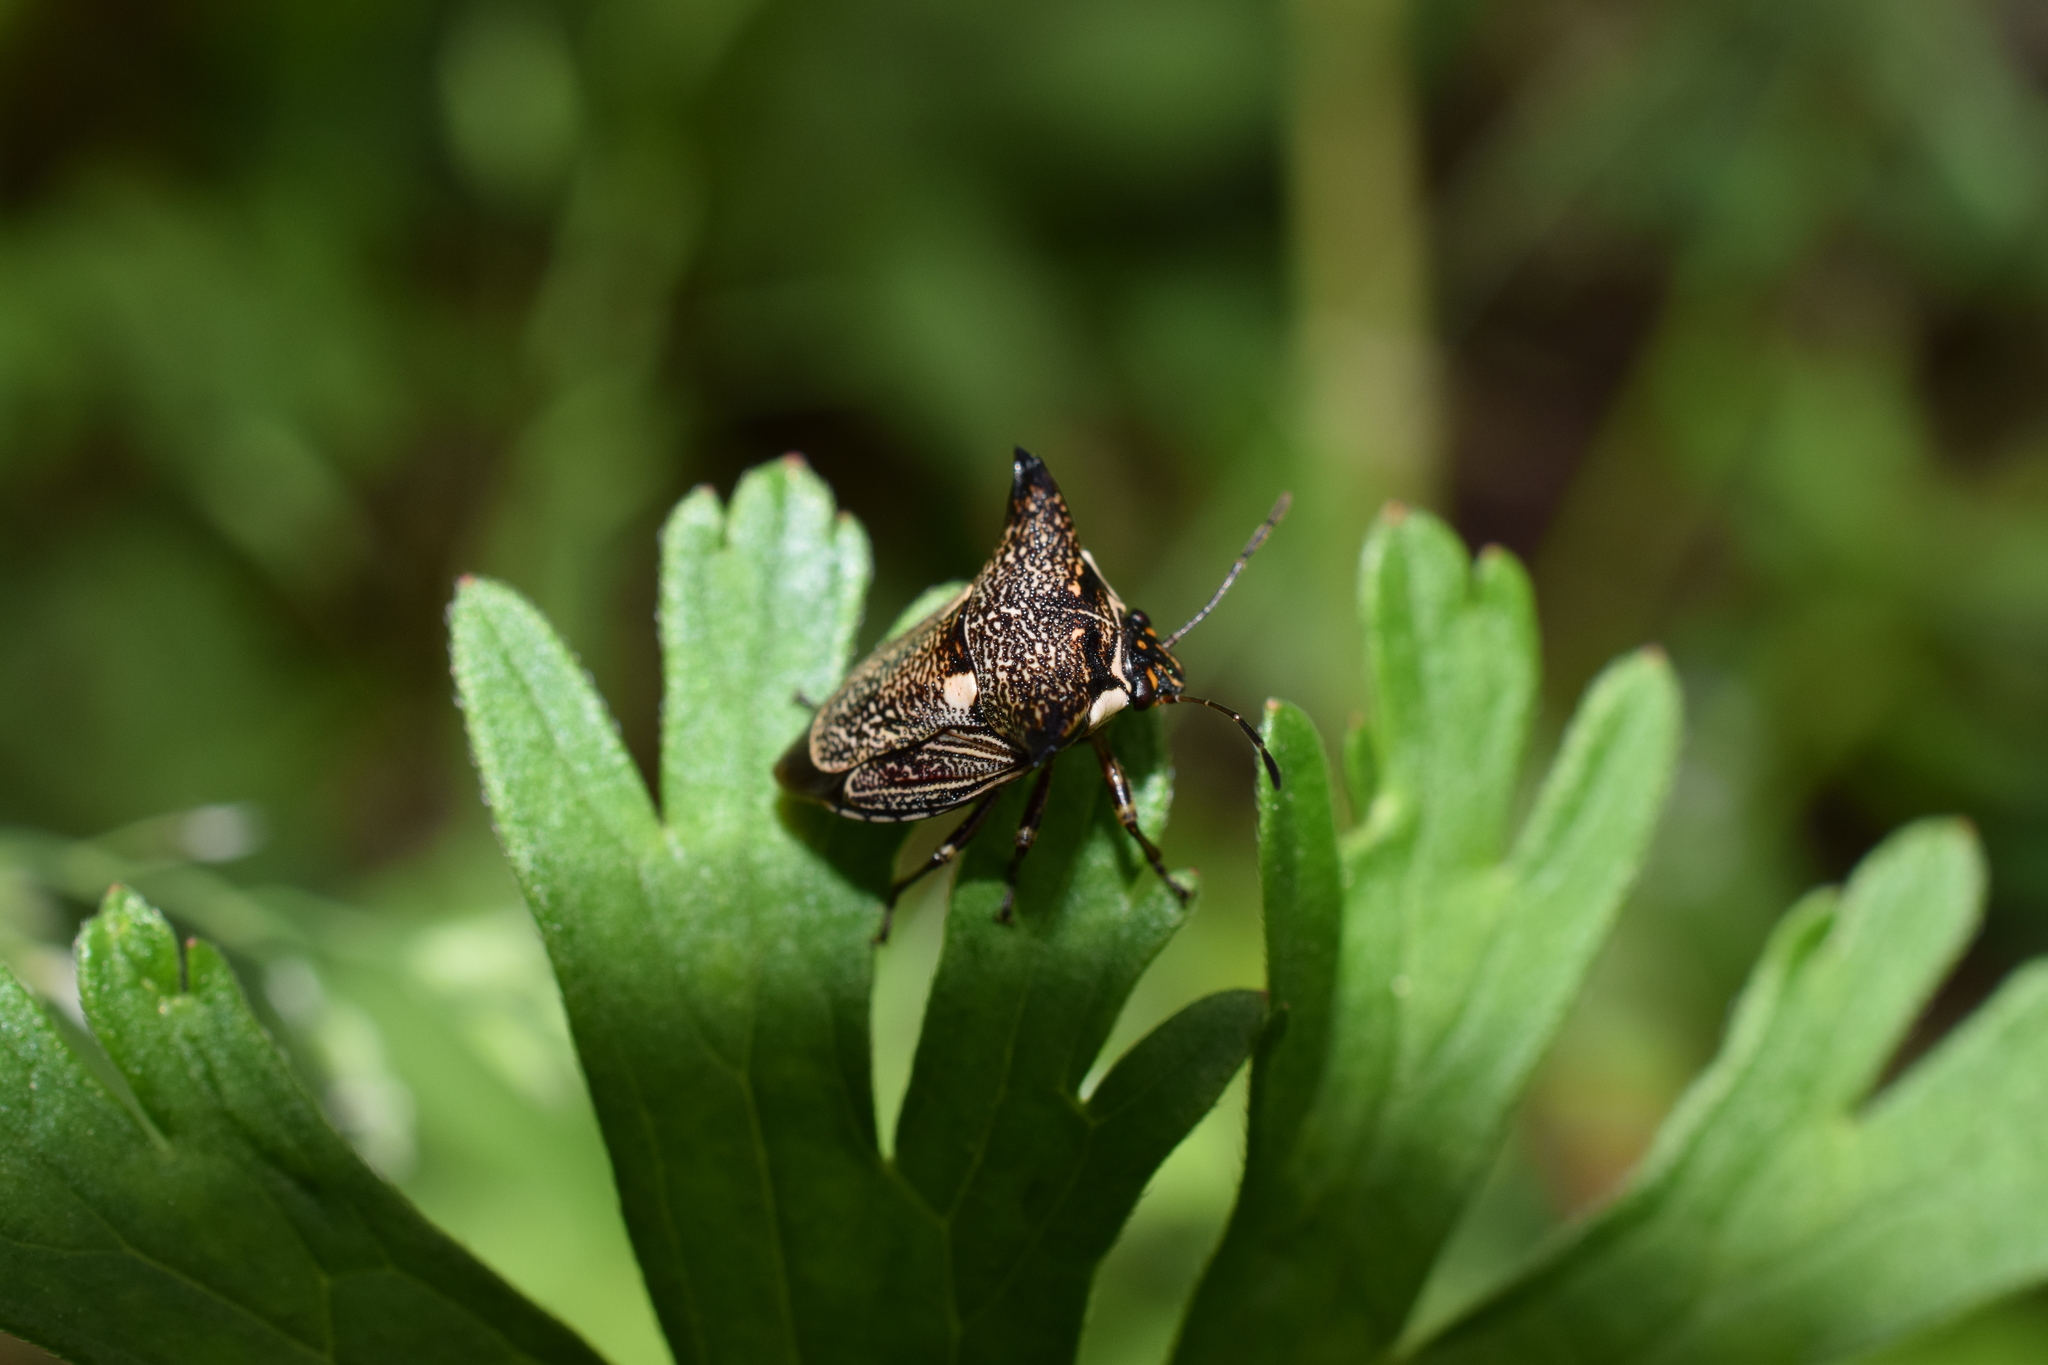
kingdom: Animalia
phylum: Arthropoda
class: Insecta
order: Hemiptera
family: Pentatomidae
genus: Alcimocoris
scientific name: Alcimocoris japonersis
